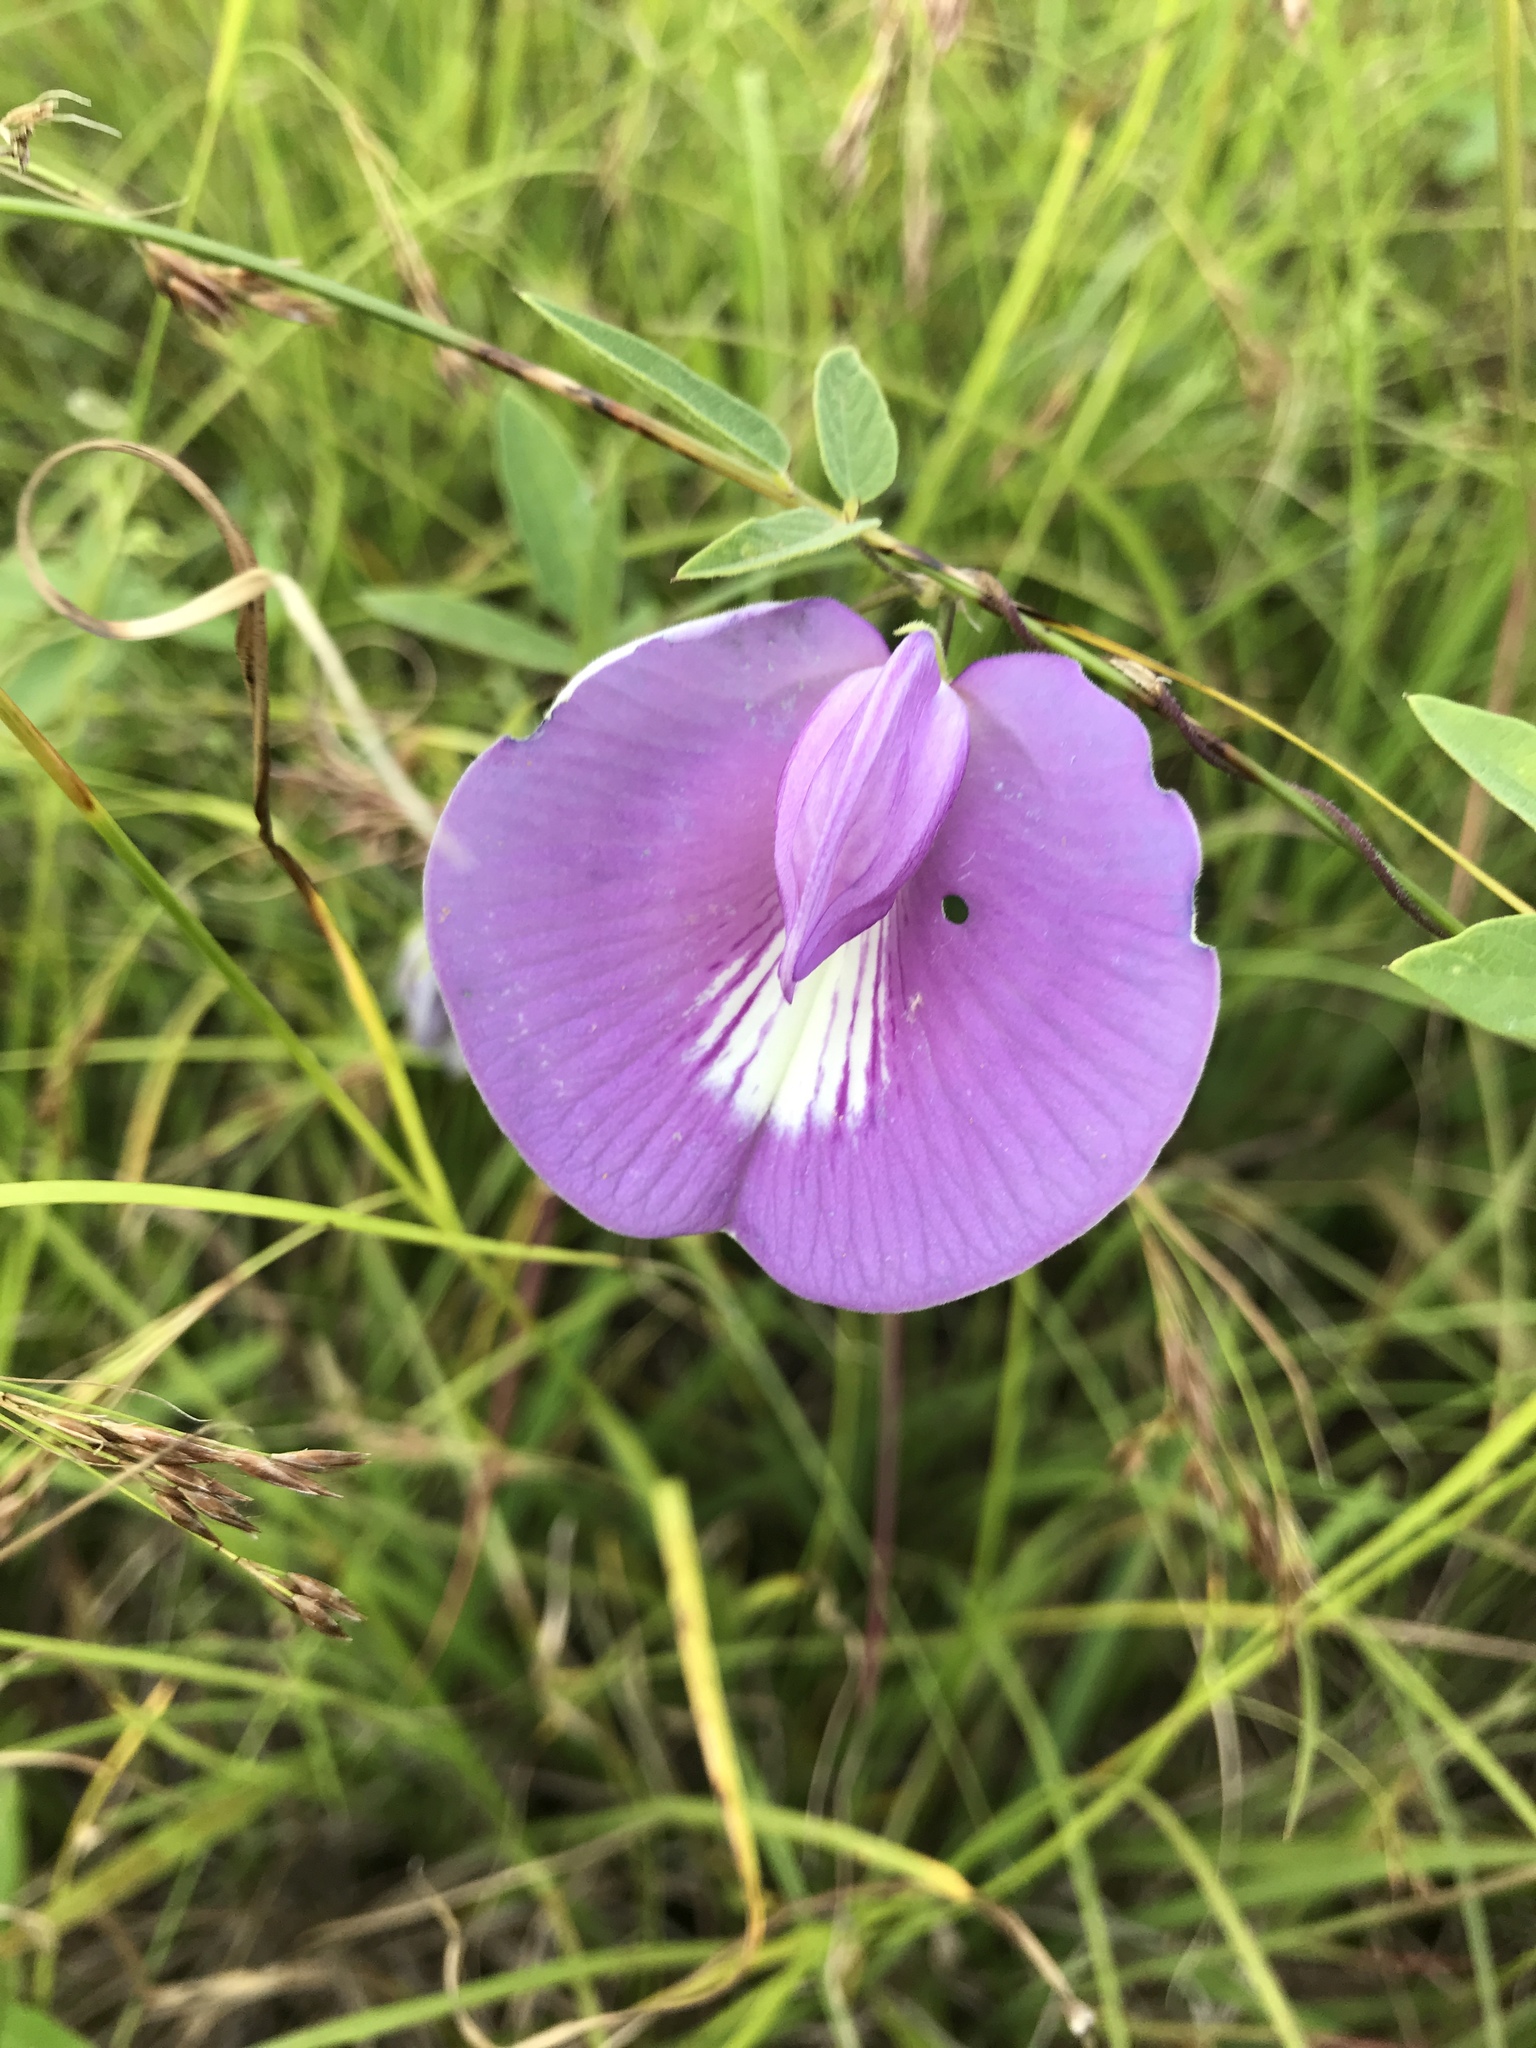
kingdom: Plantae
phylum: Tracheophyta
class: Magnoliopsida
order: Fabales
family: Fabaceae
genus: Centrosema
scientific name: Centrosema virginianum
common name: Butterfly-pea
